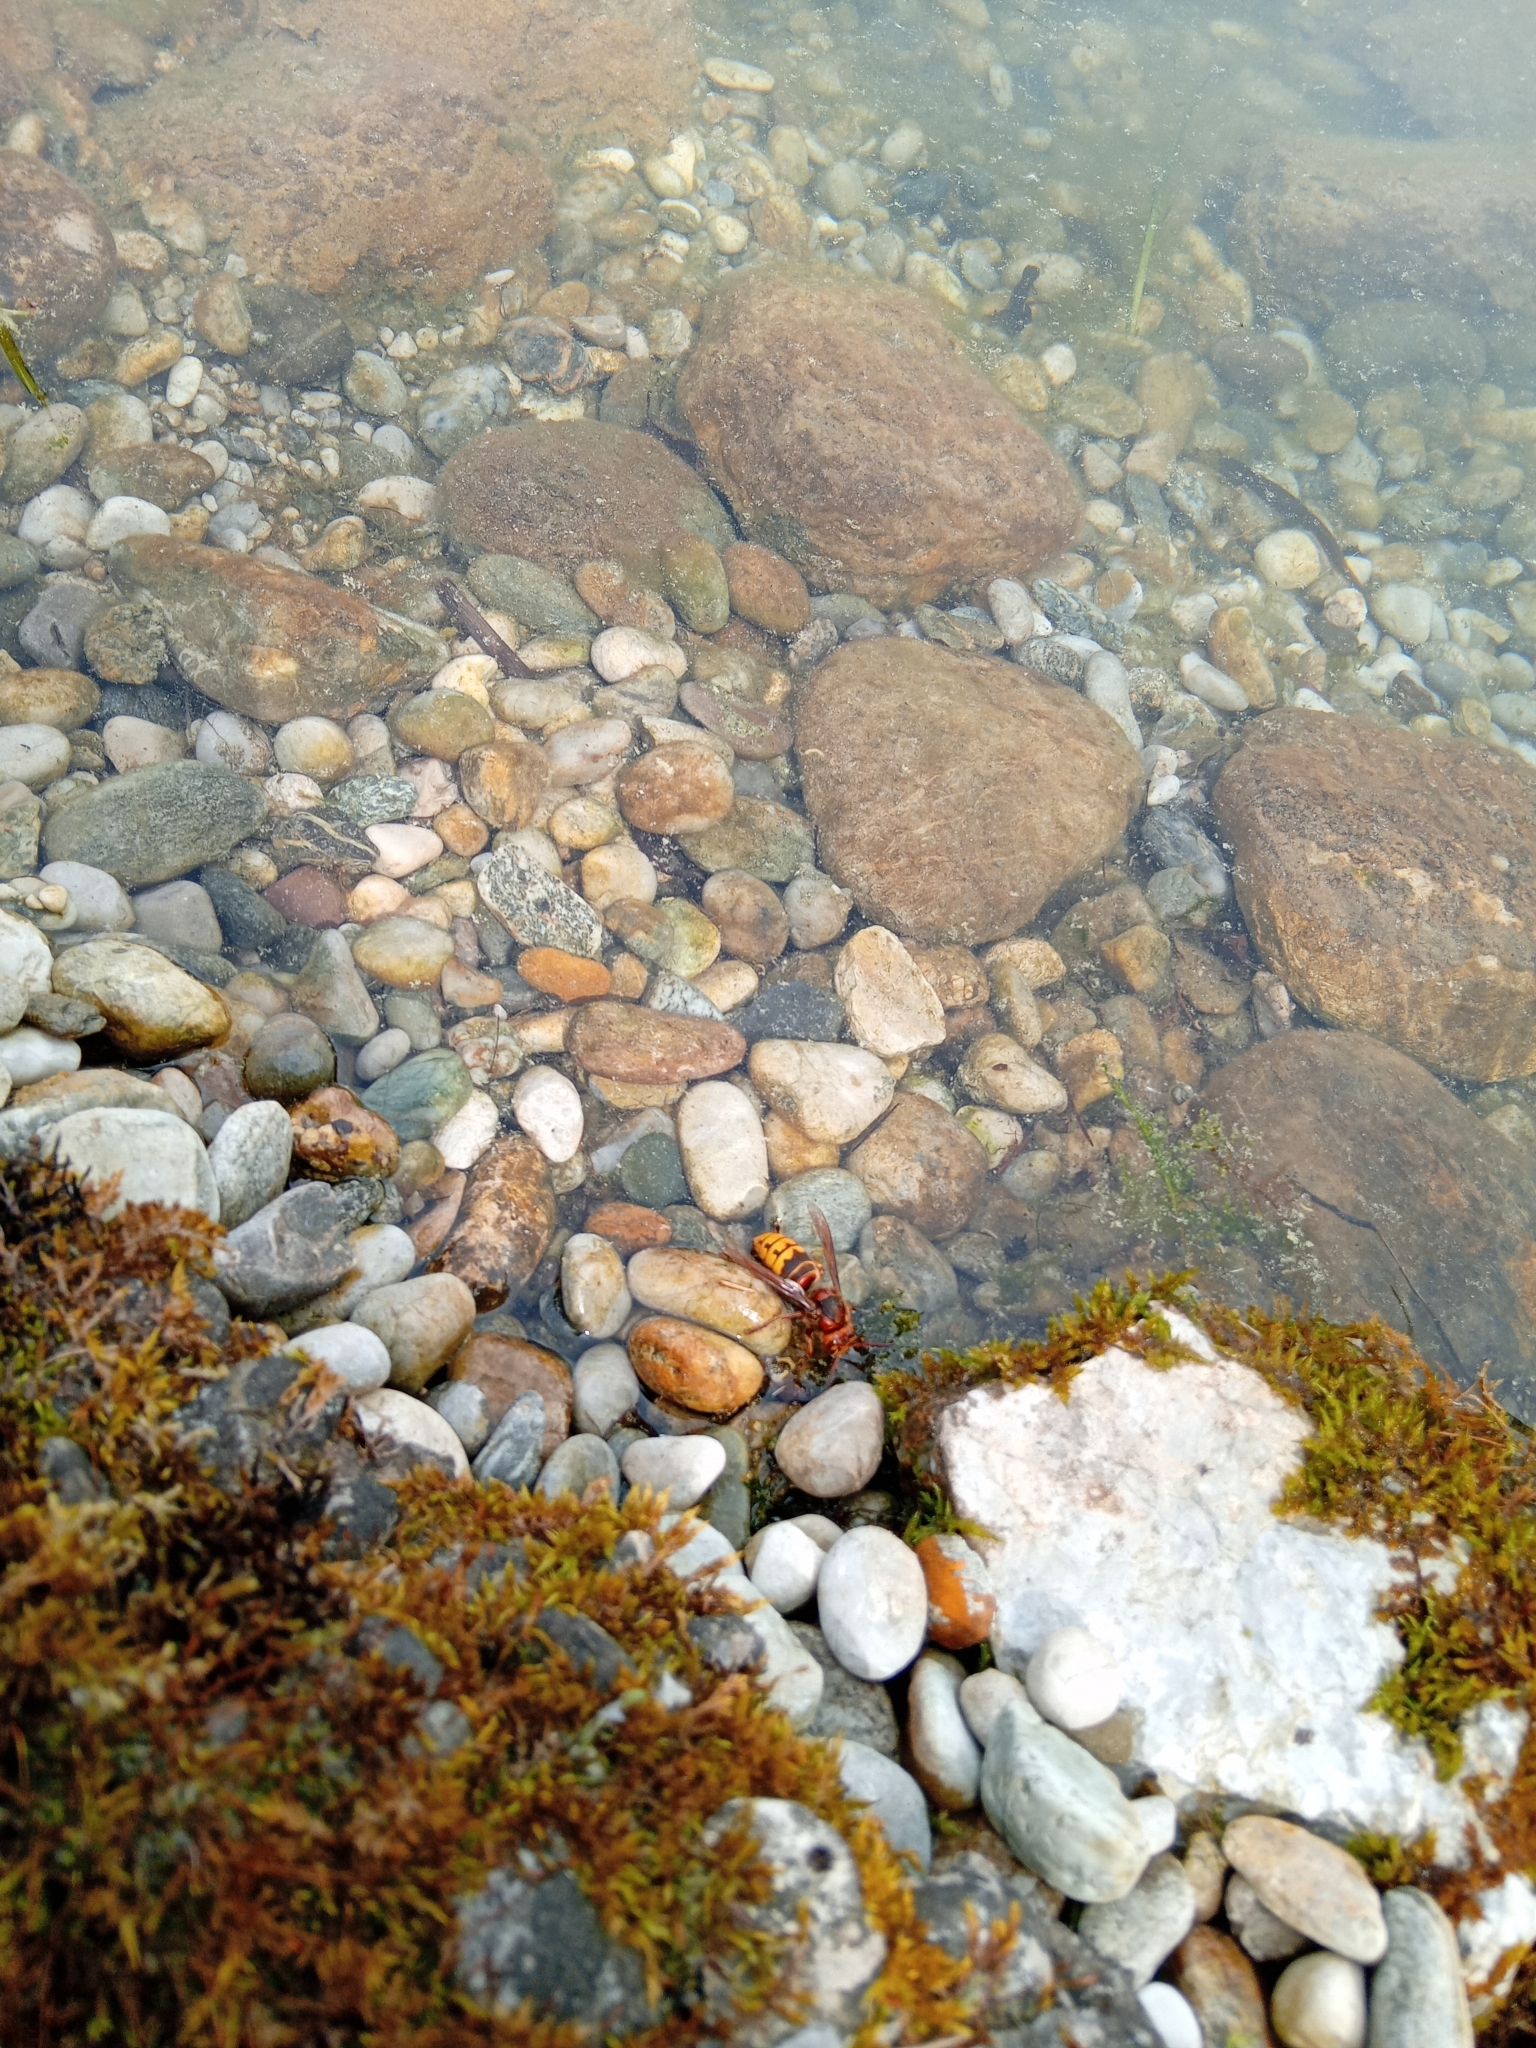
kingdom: Animalia
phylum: Arthropoda
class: Insecta
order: Hymenoptera
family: Vespidae
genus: Vespa
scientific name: Vespa crabro
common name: Hornet
